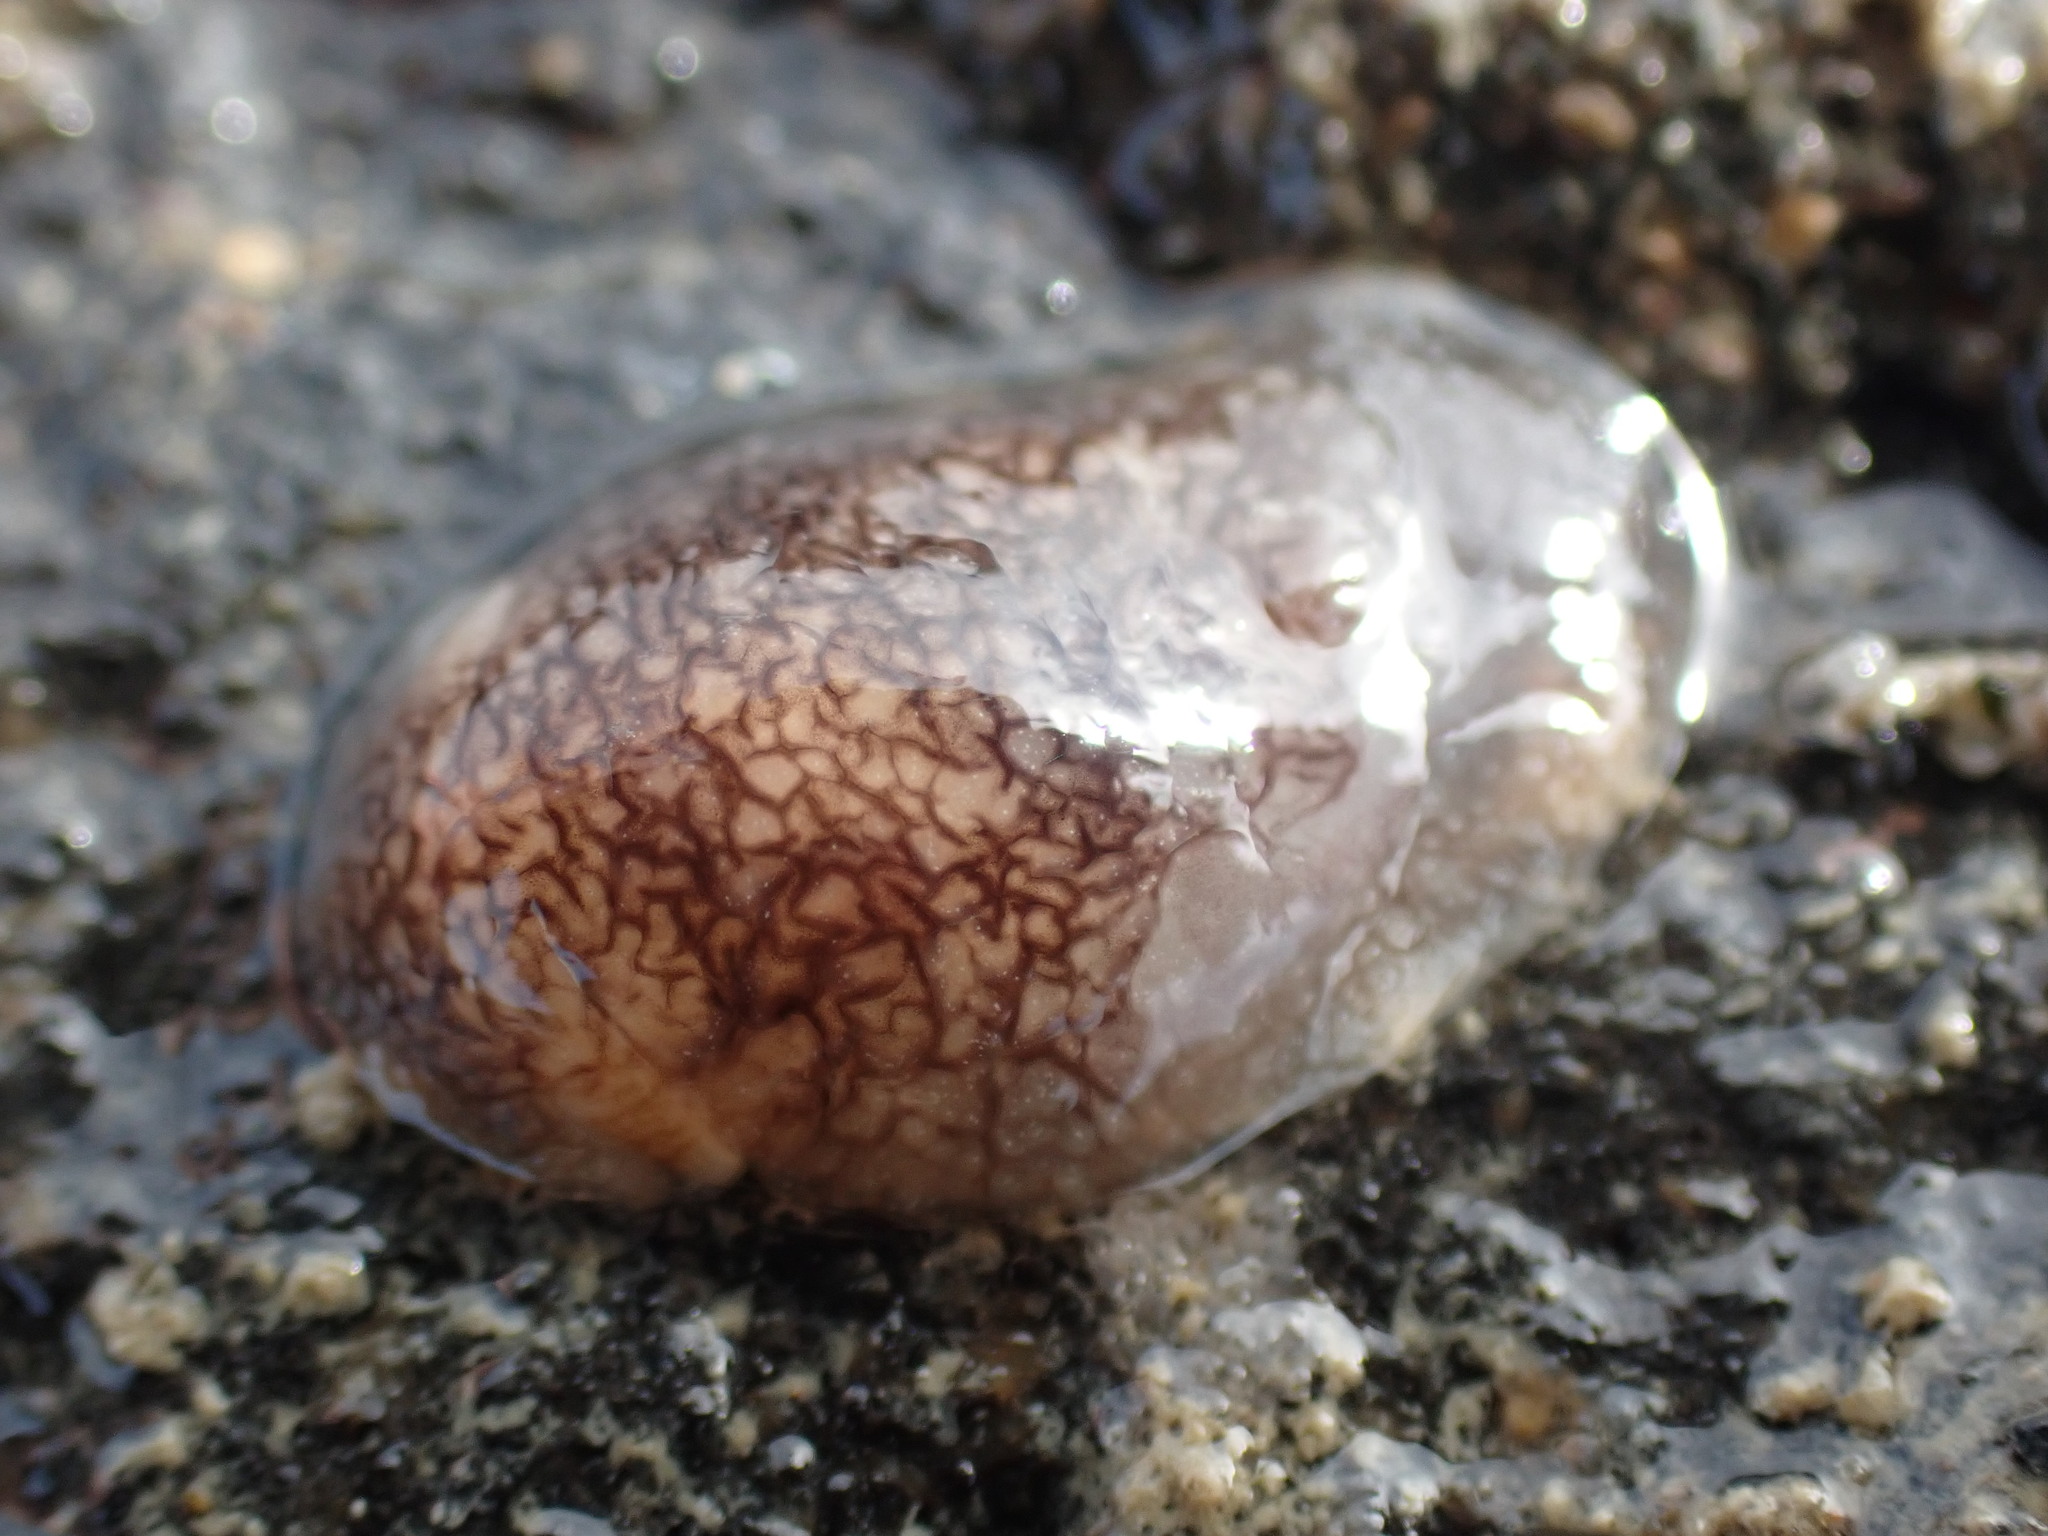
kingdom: Animalia
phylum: Mollusca
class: Gastropoda
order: Pleurobranchida
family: Pleurobranchaeidae
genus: Pleurobranchaea
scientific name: Pleurobranchaea maculata
